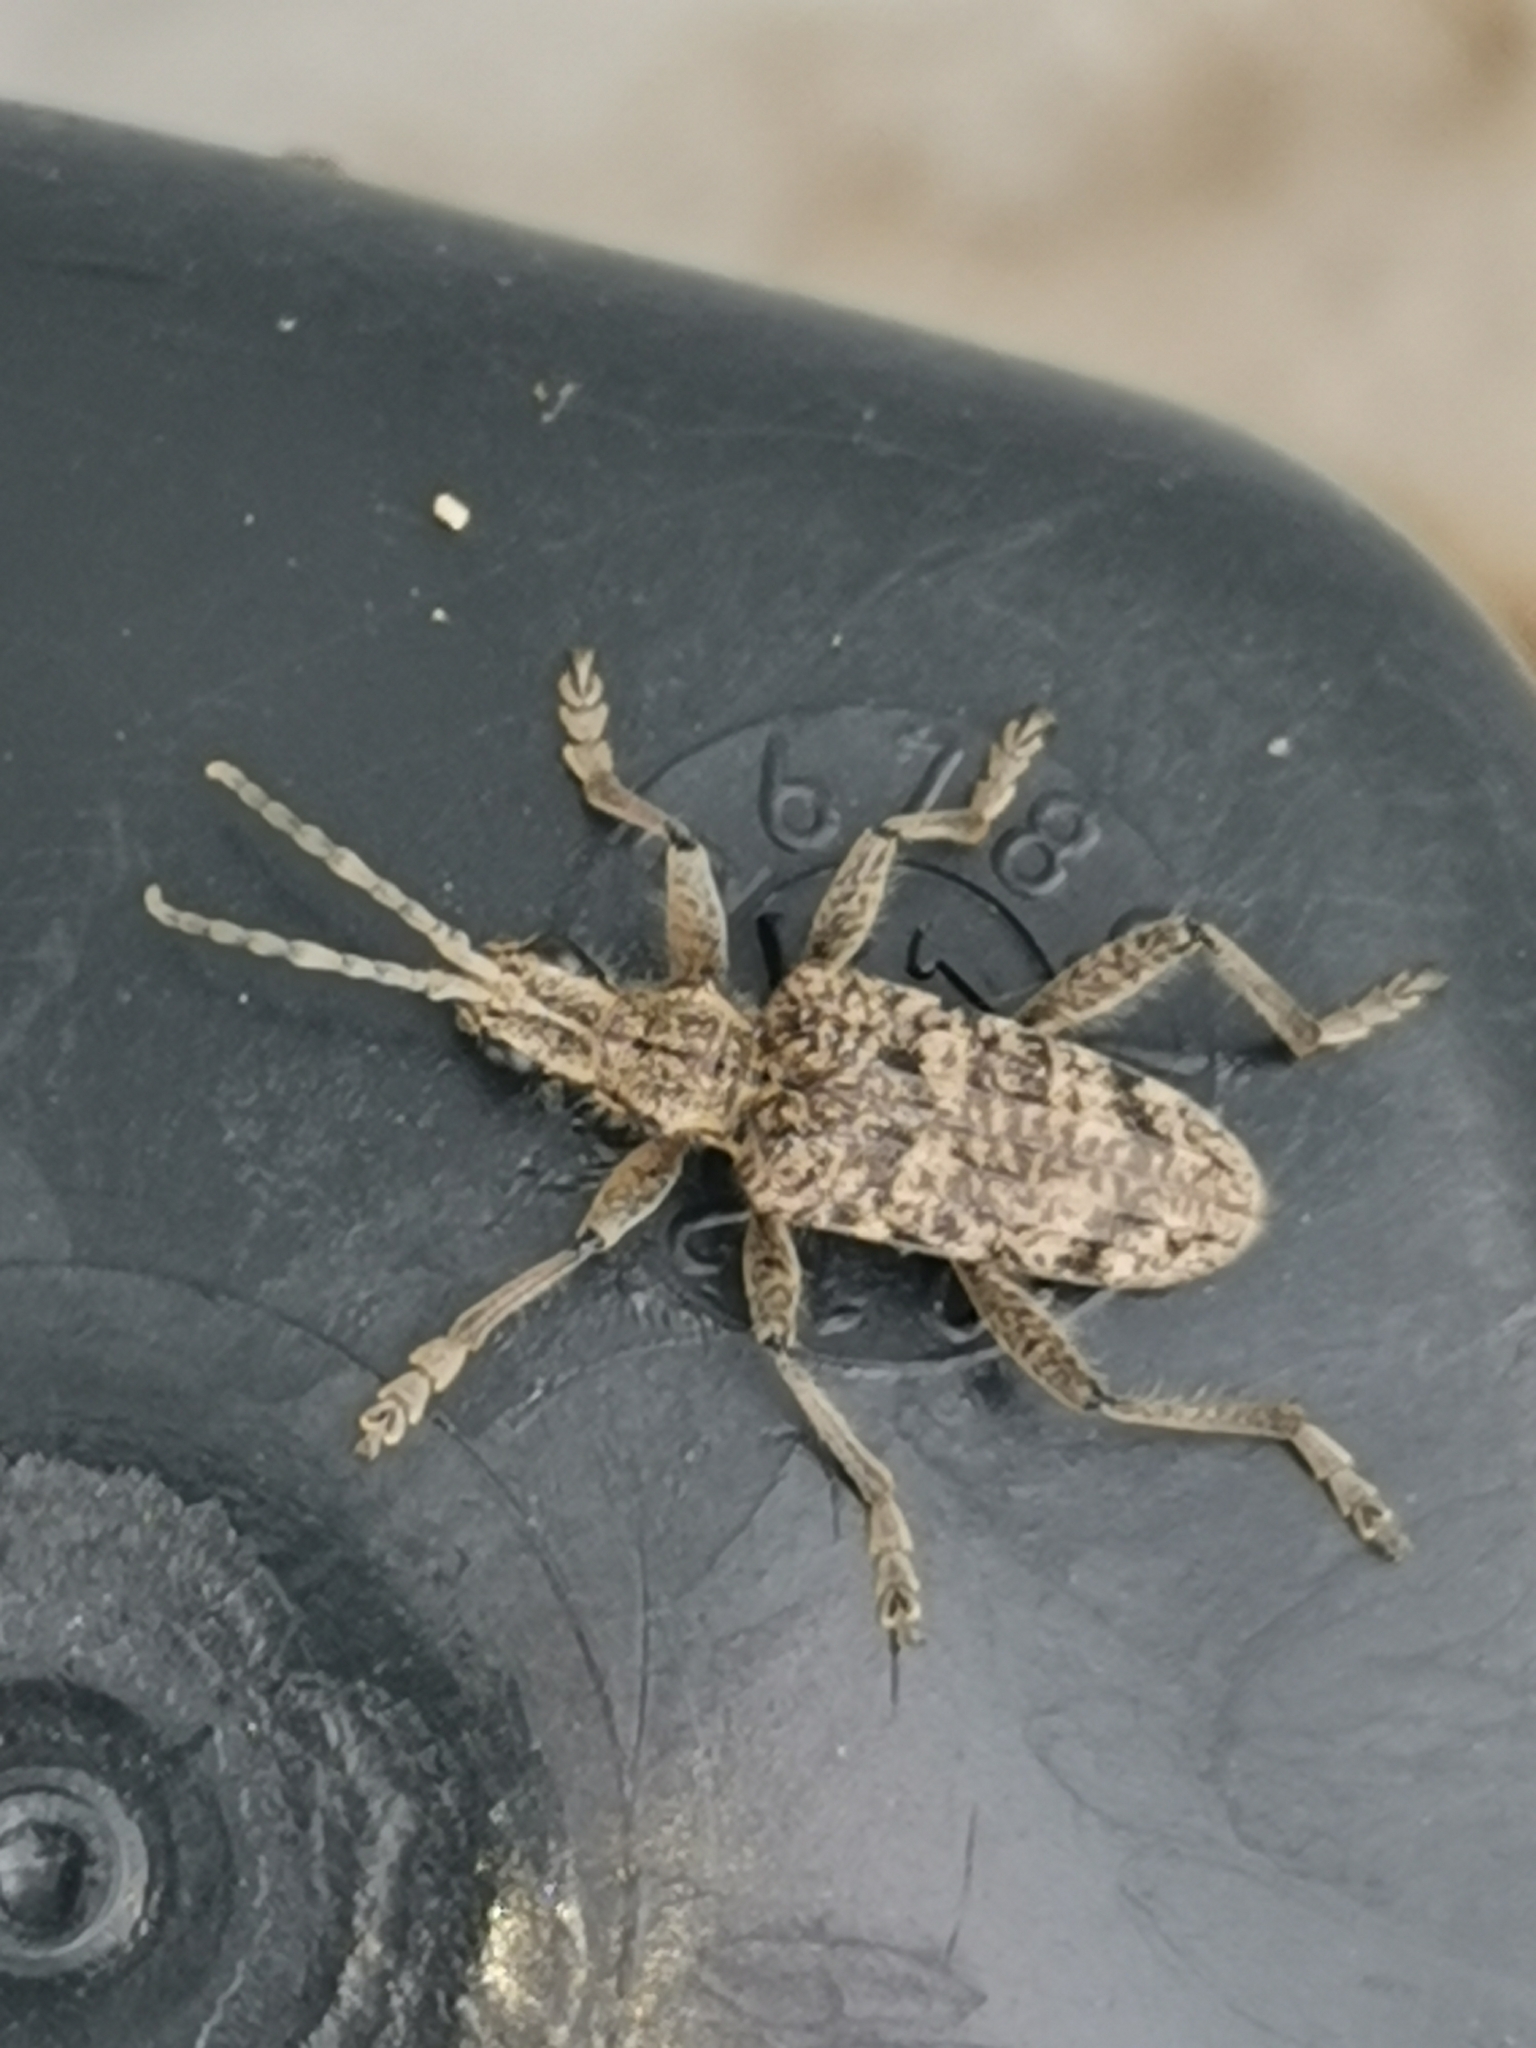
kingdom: Animalia
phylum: Arthropoda
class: Insecta
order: Coleoptera
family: Cerambycidae
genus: Rhagium
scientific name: Rhagium inquisitor
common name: Ribbed pine borer
